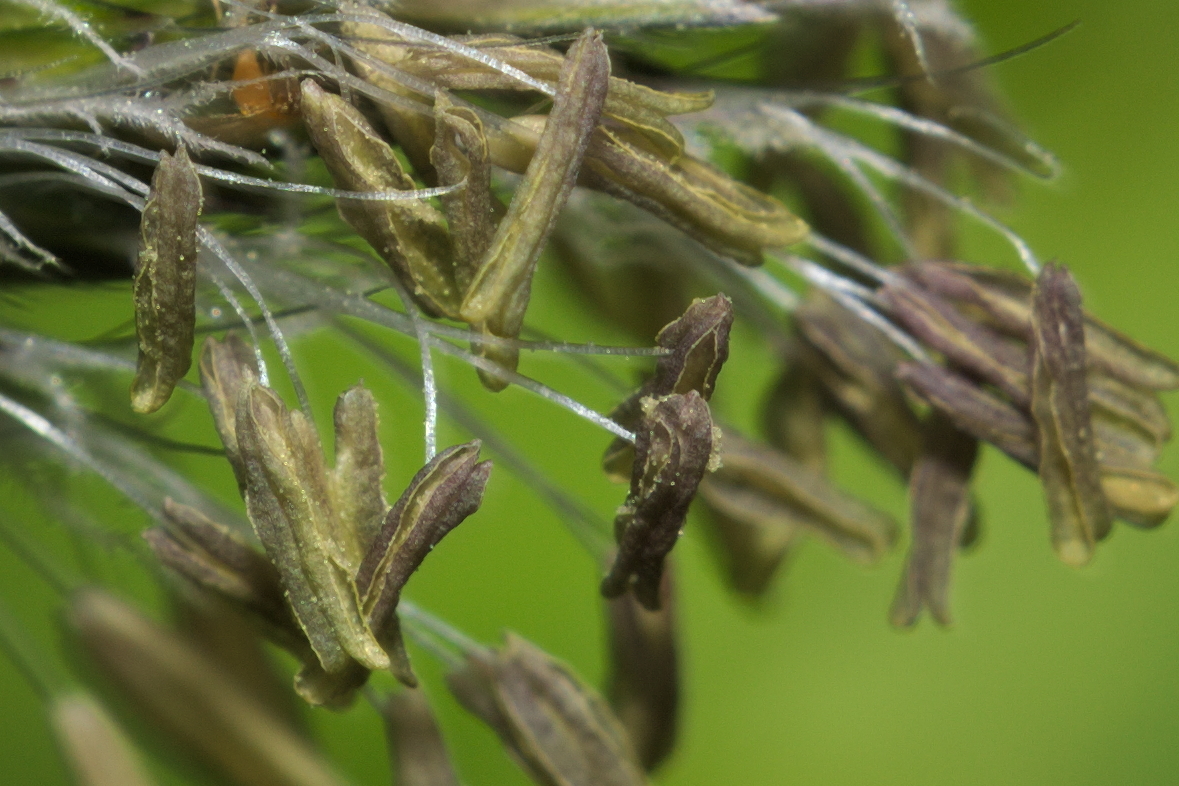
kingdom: Plantae
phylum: Tracheophyta
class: Liliopsida
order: Poales
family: Poaceae
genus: Alopecurus
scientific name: Alopecurus pratensis
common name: Meadow foxtail
